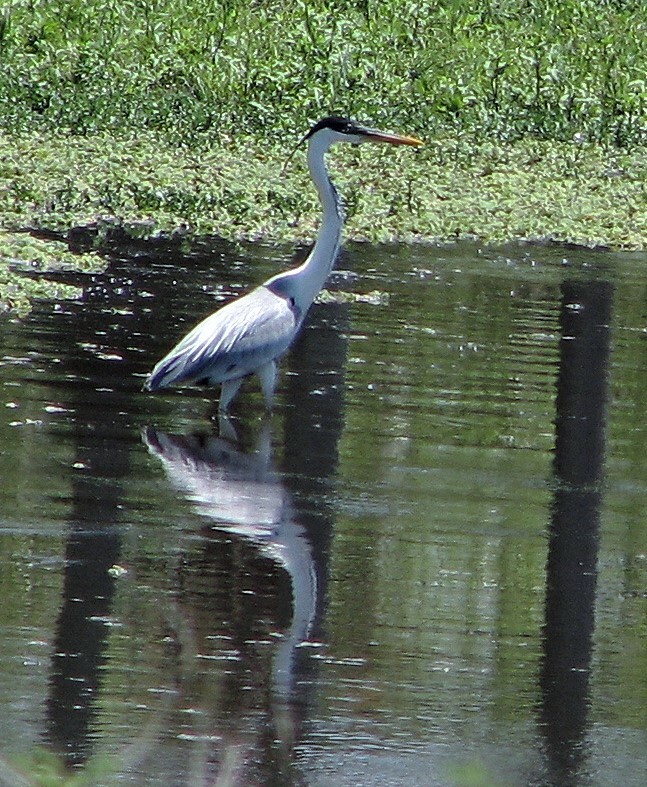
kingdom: Animalia
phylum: Chordata
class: Aves
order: Pelecaniformes
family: Ardeidae
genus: Ardea
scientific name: Ardea cocoi
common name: Cocoi heron
